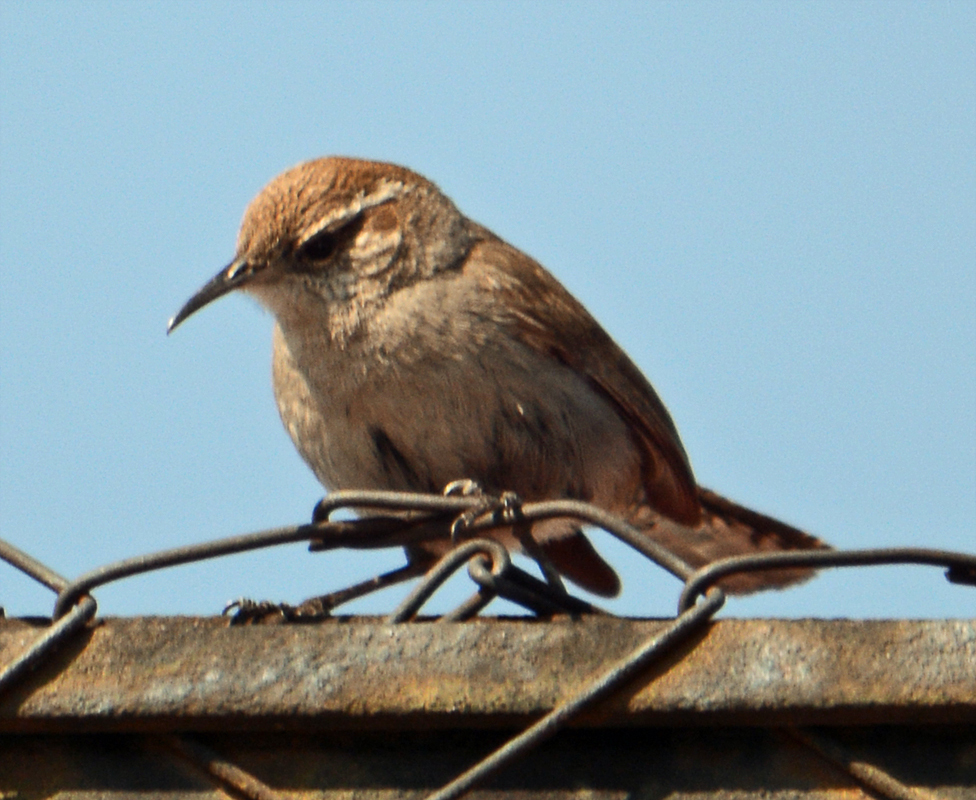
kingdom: Animalia
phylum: Chordata
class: Aves
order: Passeriformes
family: Troglodytidae
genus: Thryomanes
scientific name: Thryomanes bewickii
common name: Bewick's wren
